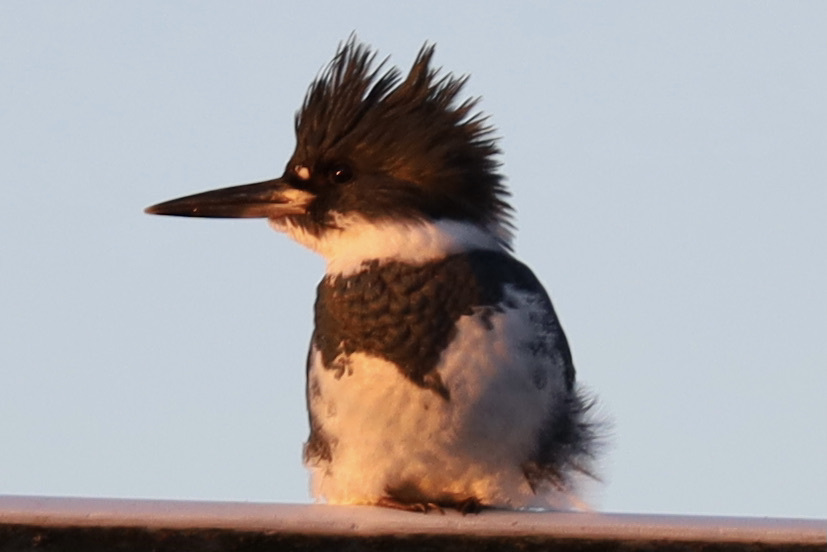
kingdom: Animalia
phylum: Chordata
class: Aves
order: Coraciiformes
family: Alcedinidae
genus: Megaceryle
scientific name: Megaceryle alcyon
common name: Belted kingfisher
